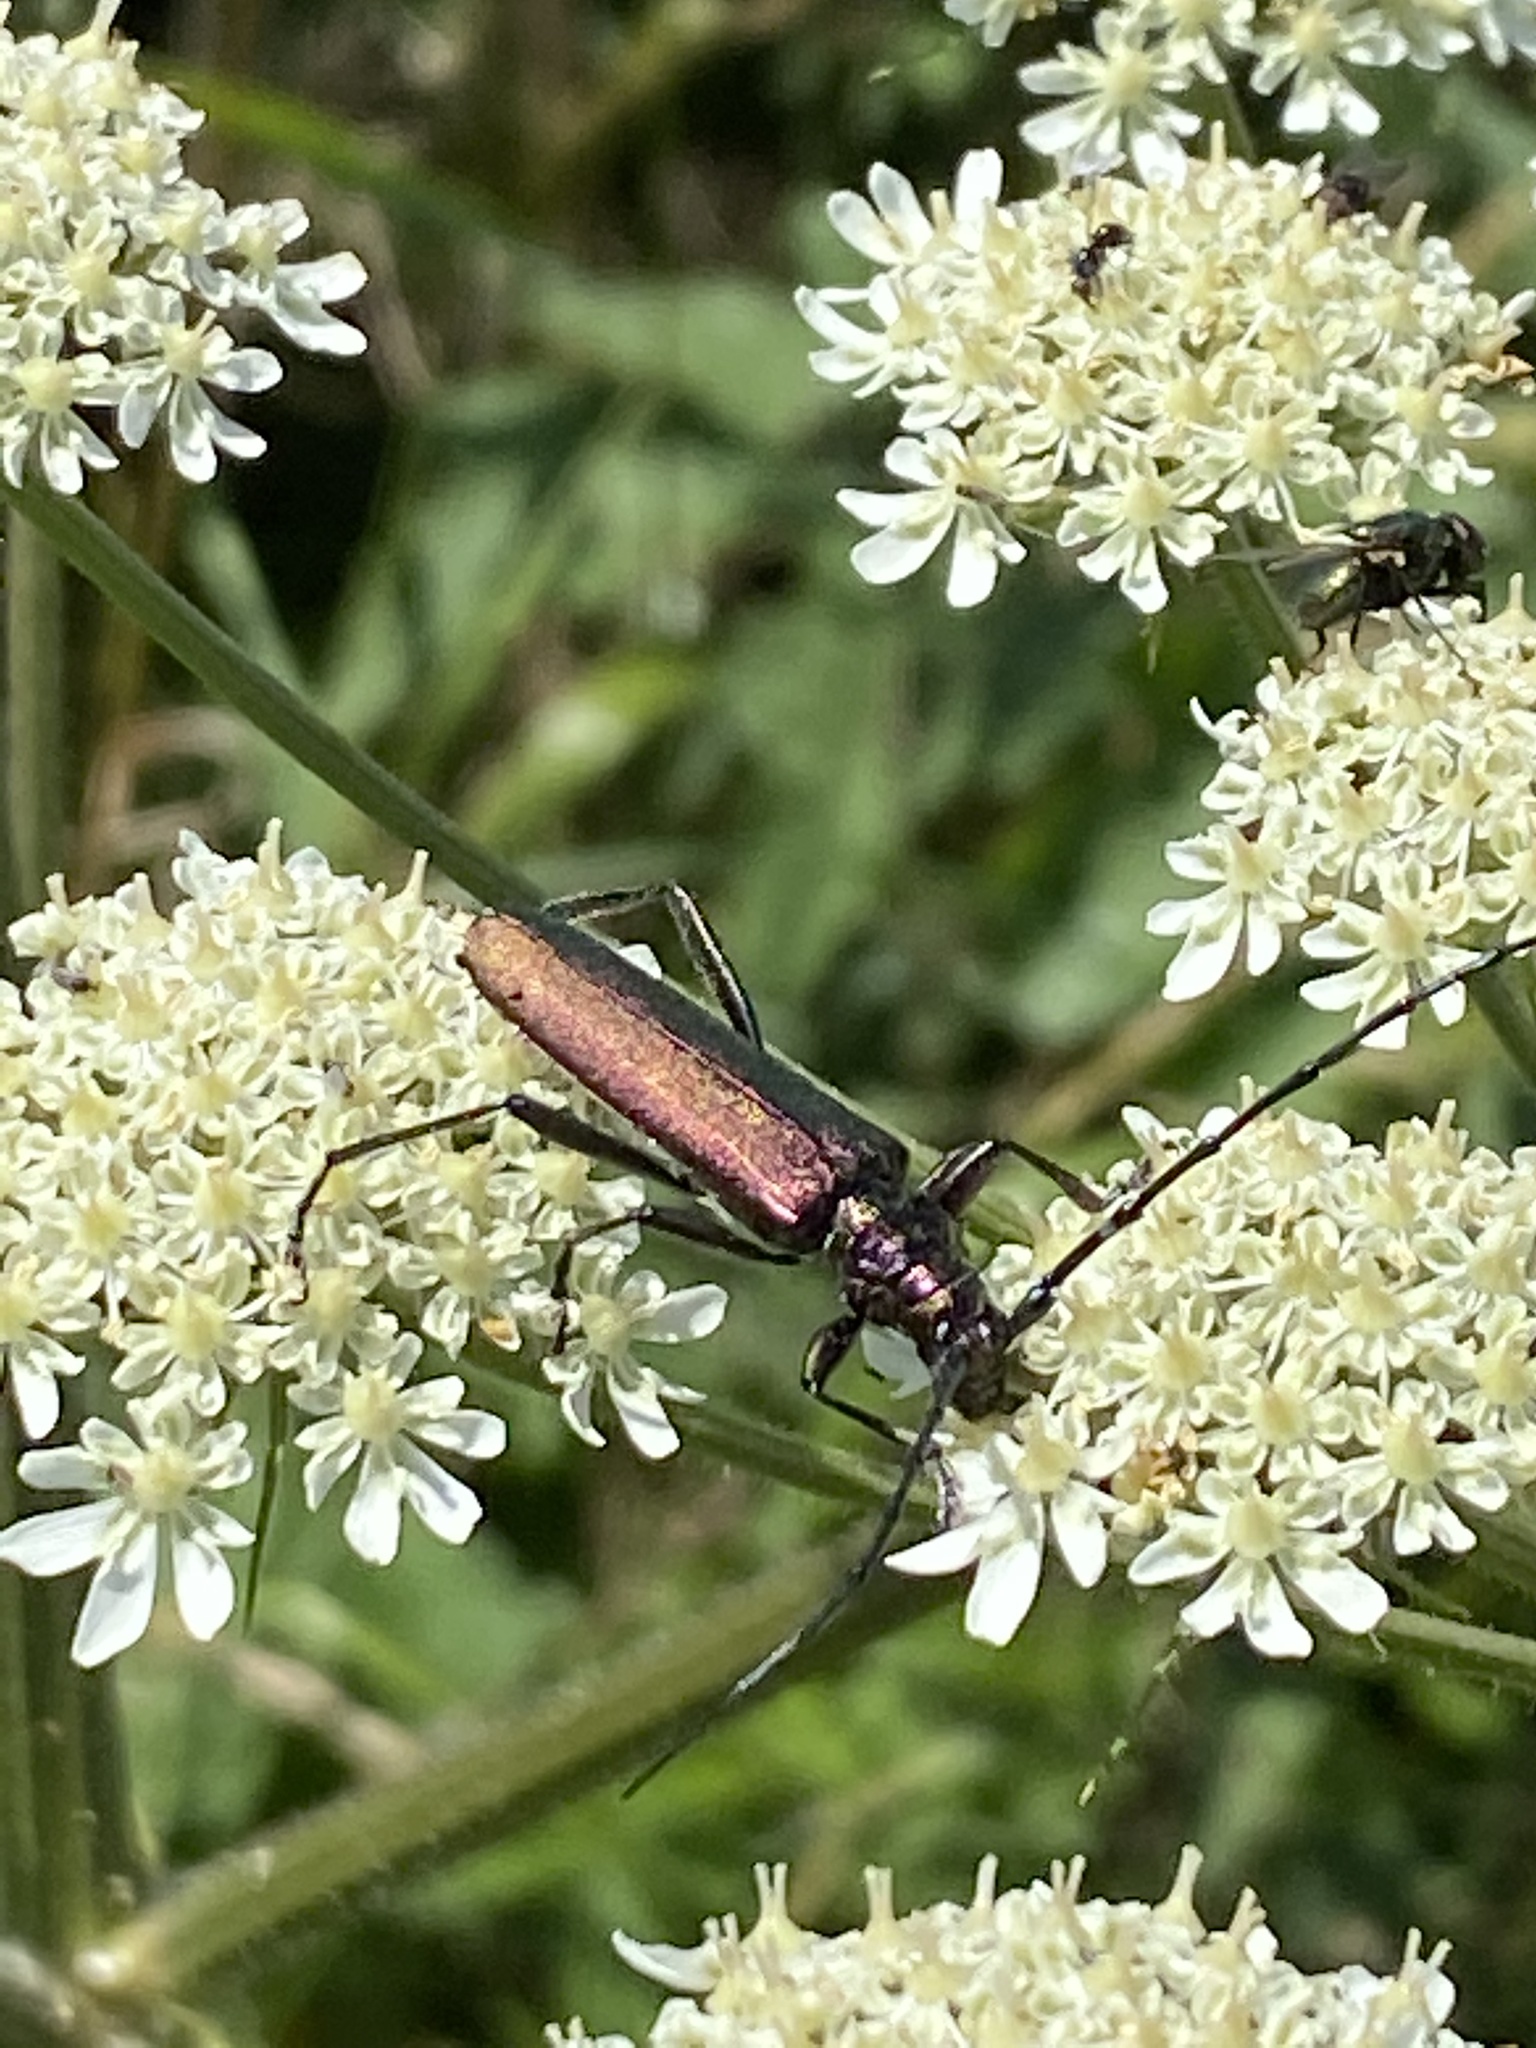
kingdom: Animalia
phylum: Arthropoda
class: Insecta
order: Coleoptera
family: Cerambycidae
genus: Aromia
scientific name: Aromia moschata
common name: Musk beetle
